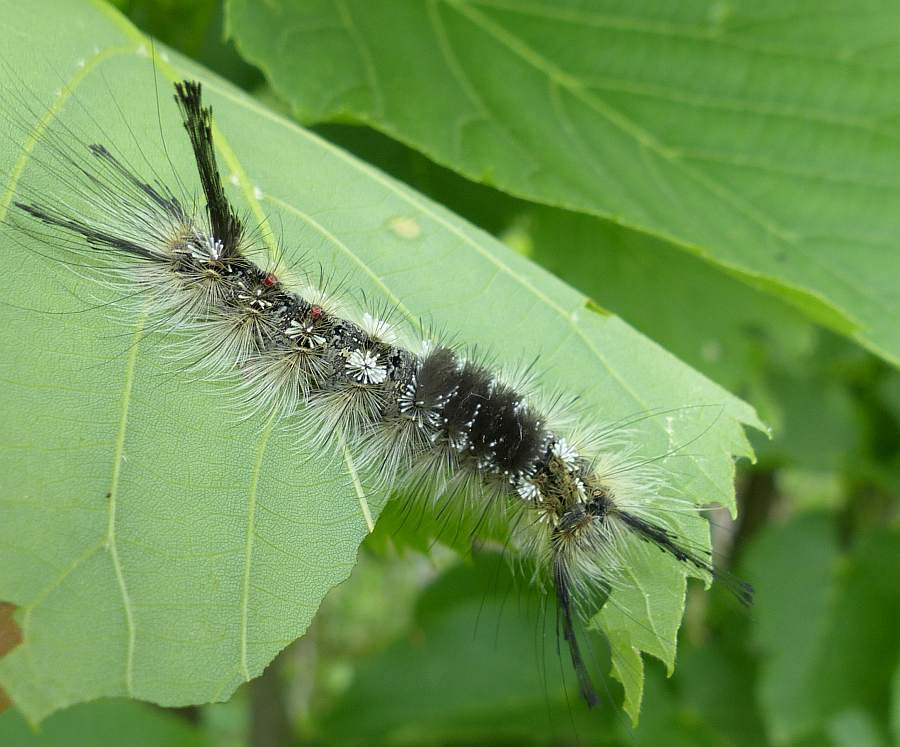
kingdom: Animalia
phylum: Arthropoda
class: Insecta
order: Lepidoptera
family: Erebidae
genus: Dasychira
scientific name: Dasychira dorsipennata
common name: Sharp-lined tussock moth
